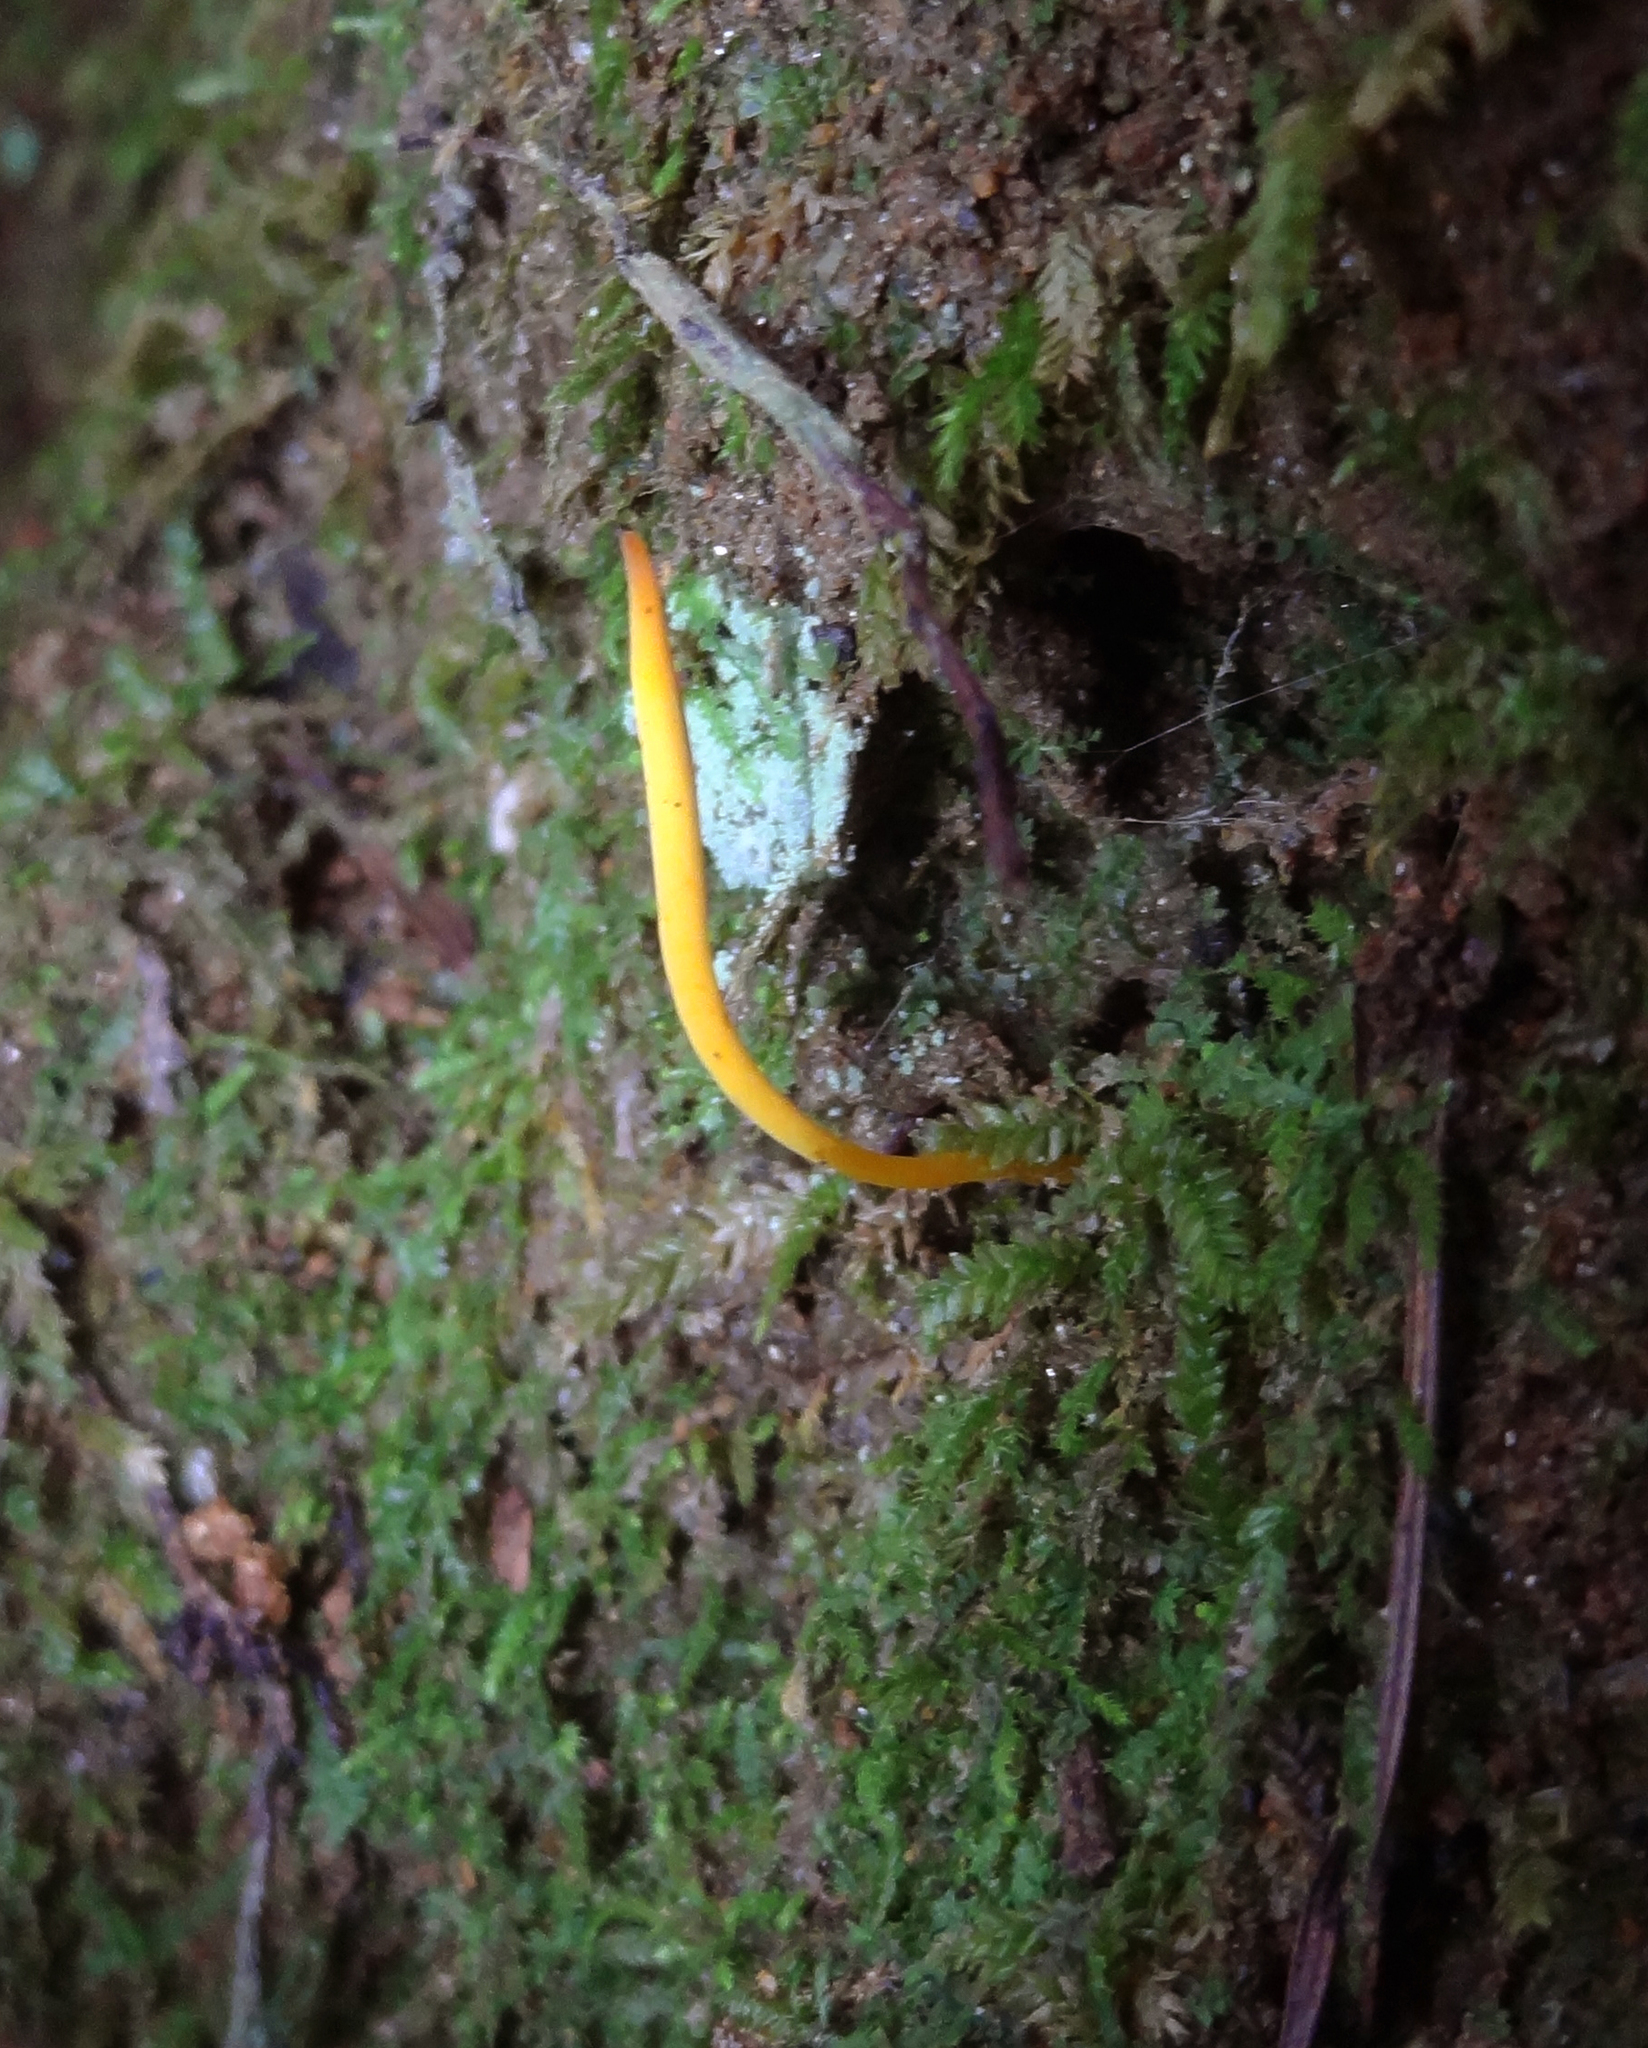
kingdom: Fungi
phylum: Basidiomycota
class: Agaricomycetes
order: Agaricales
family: Clavariaceae
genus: Clavulinopsis
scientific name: Clavulinopsis laeticolor
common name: Handsome club
